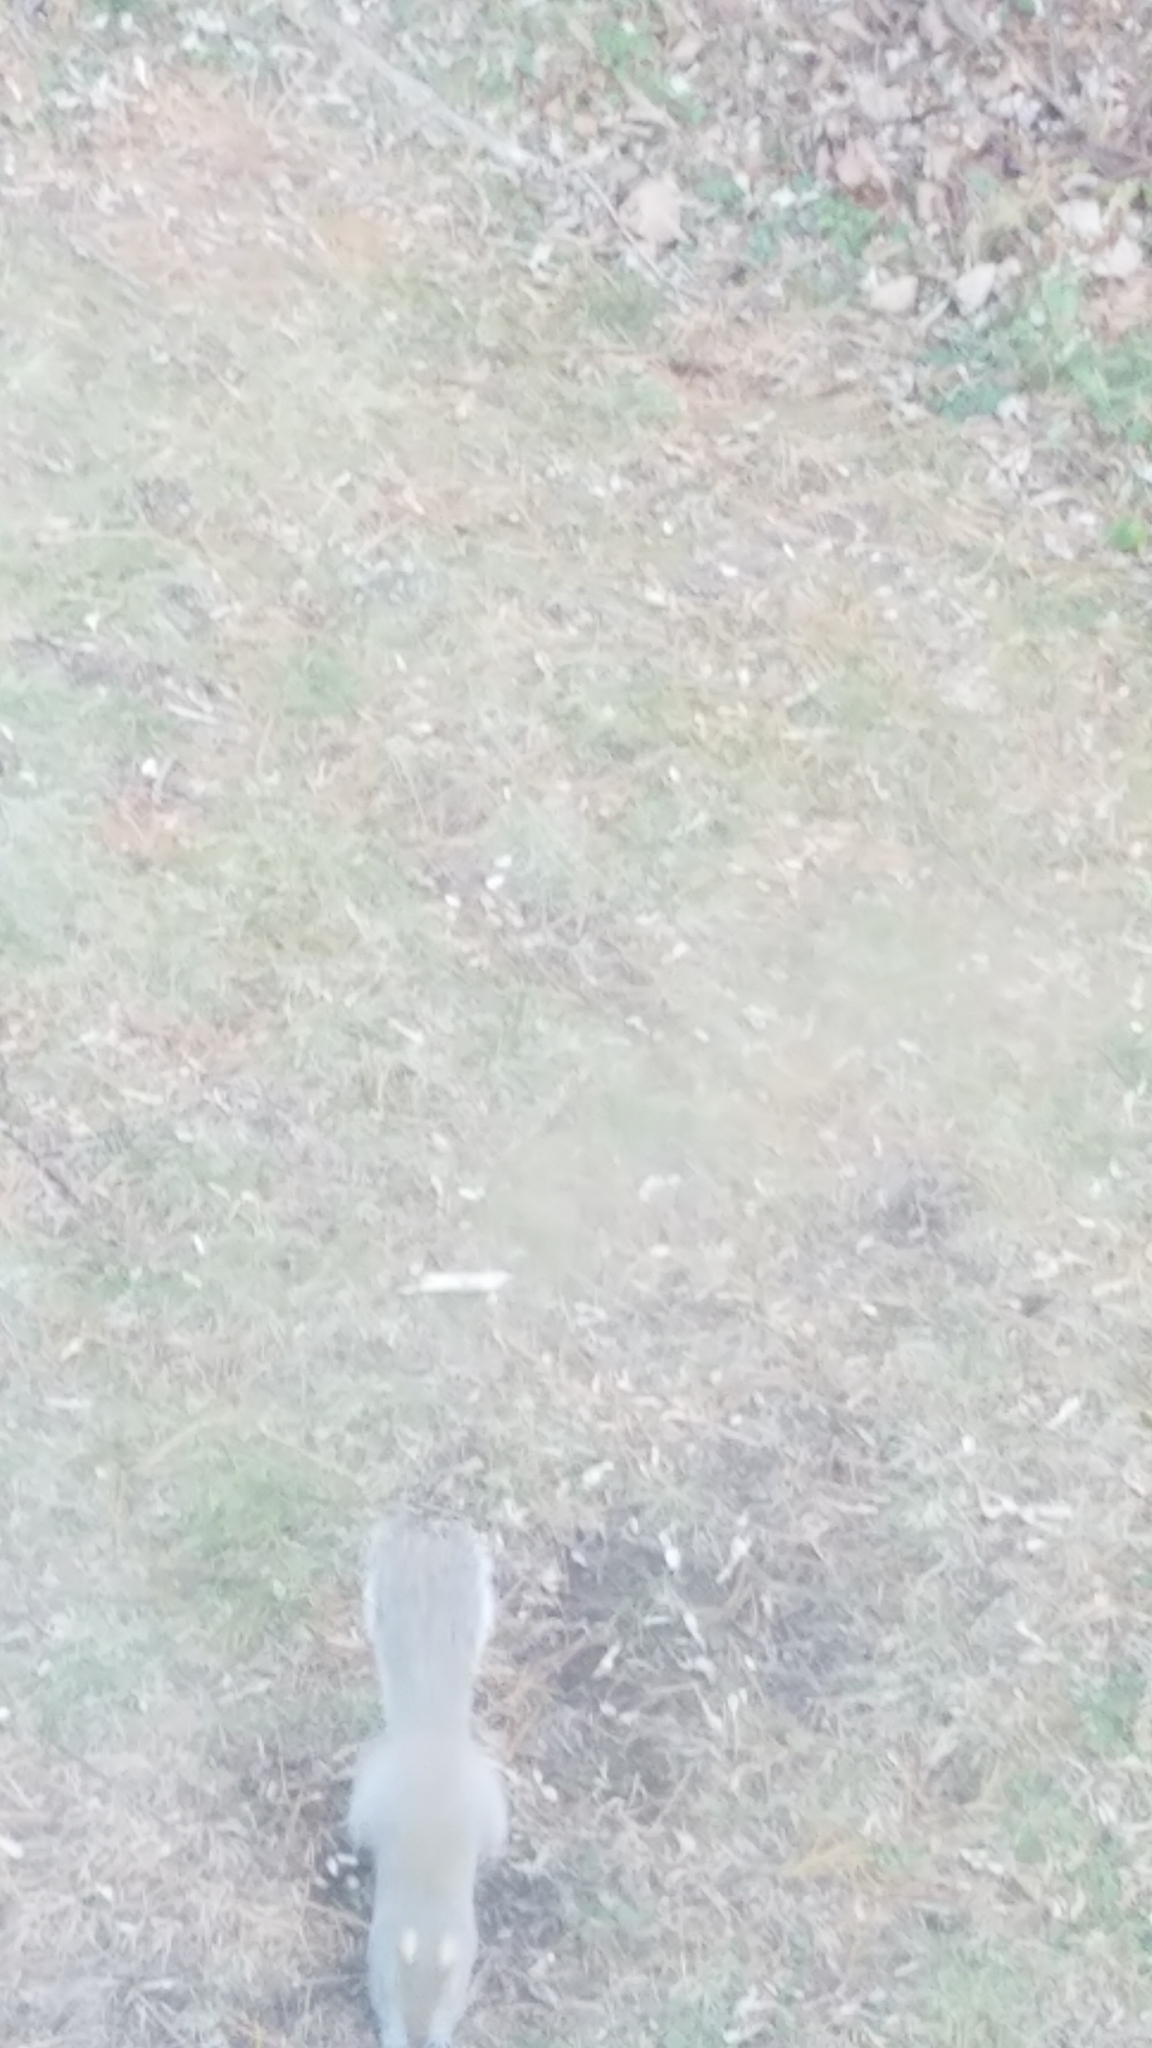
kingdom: Animalia
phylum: Chordata
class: Mammalia
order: Rodentia
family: Sciuridae
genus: Sciurus
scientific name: Sciurus carolinensis
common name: Eastern gray squirrel
